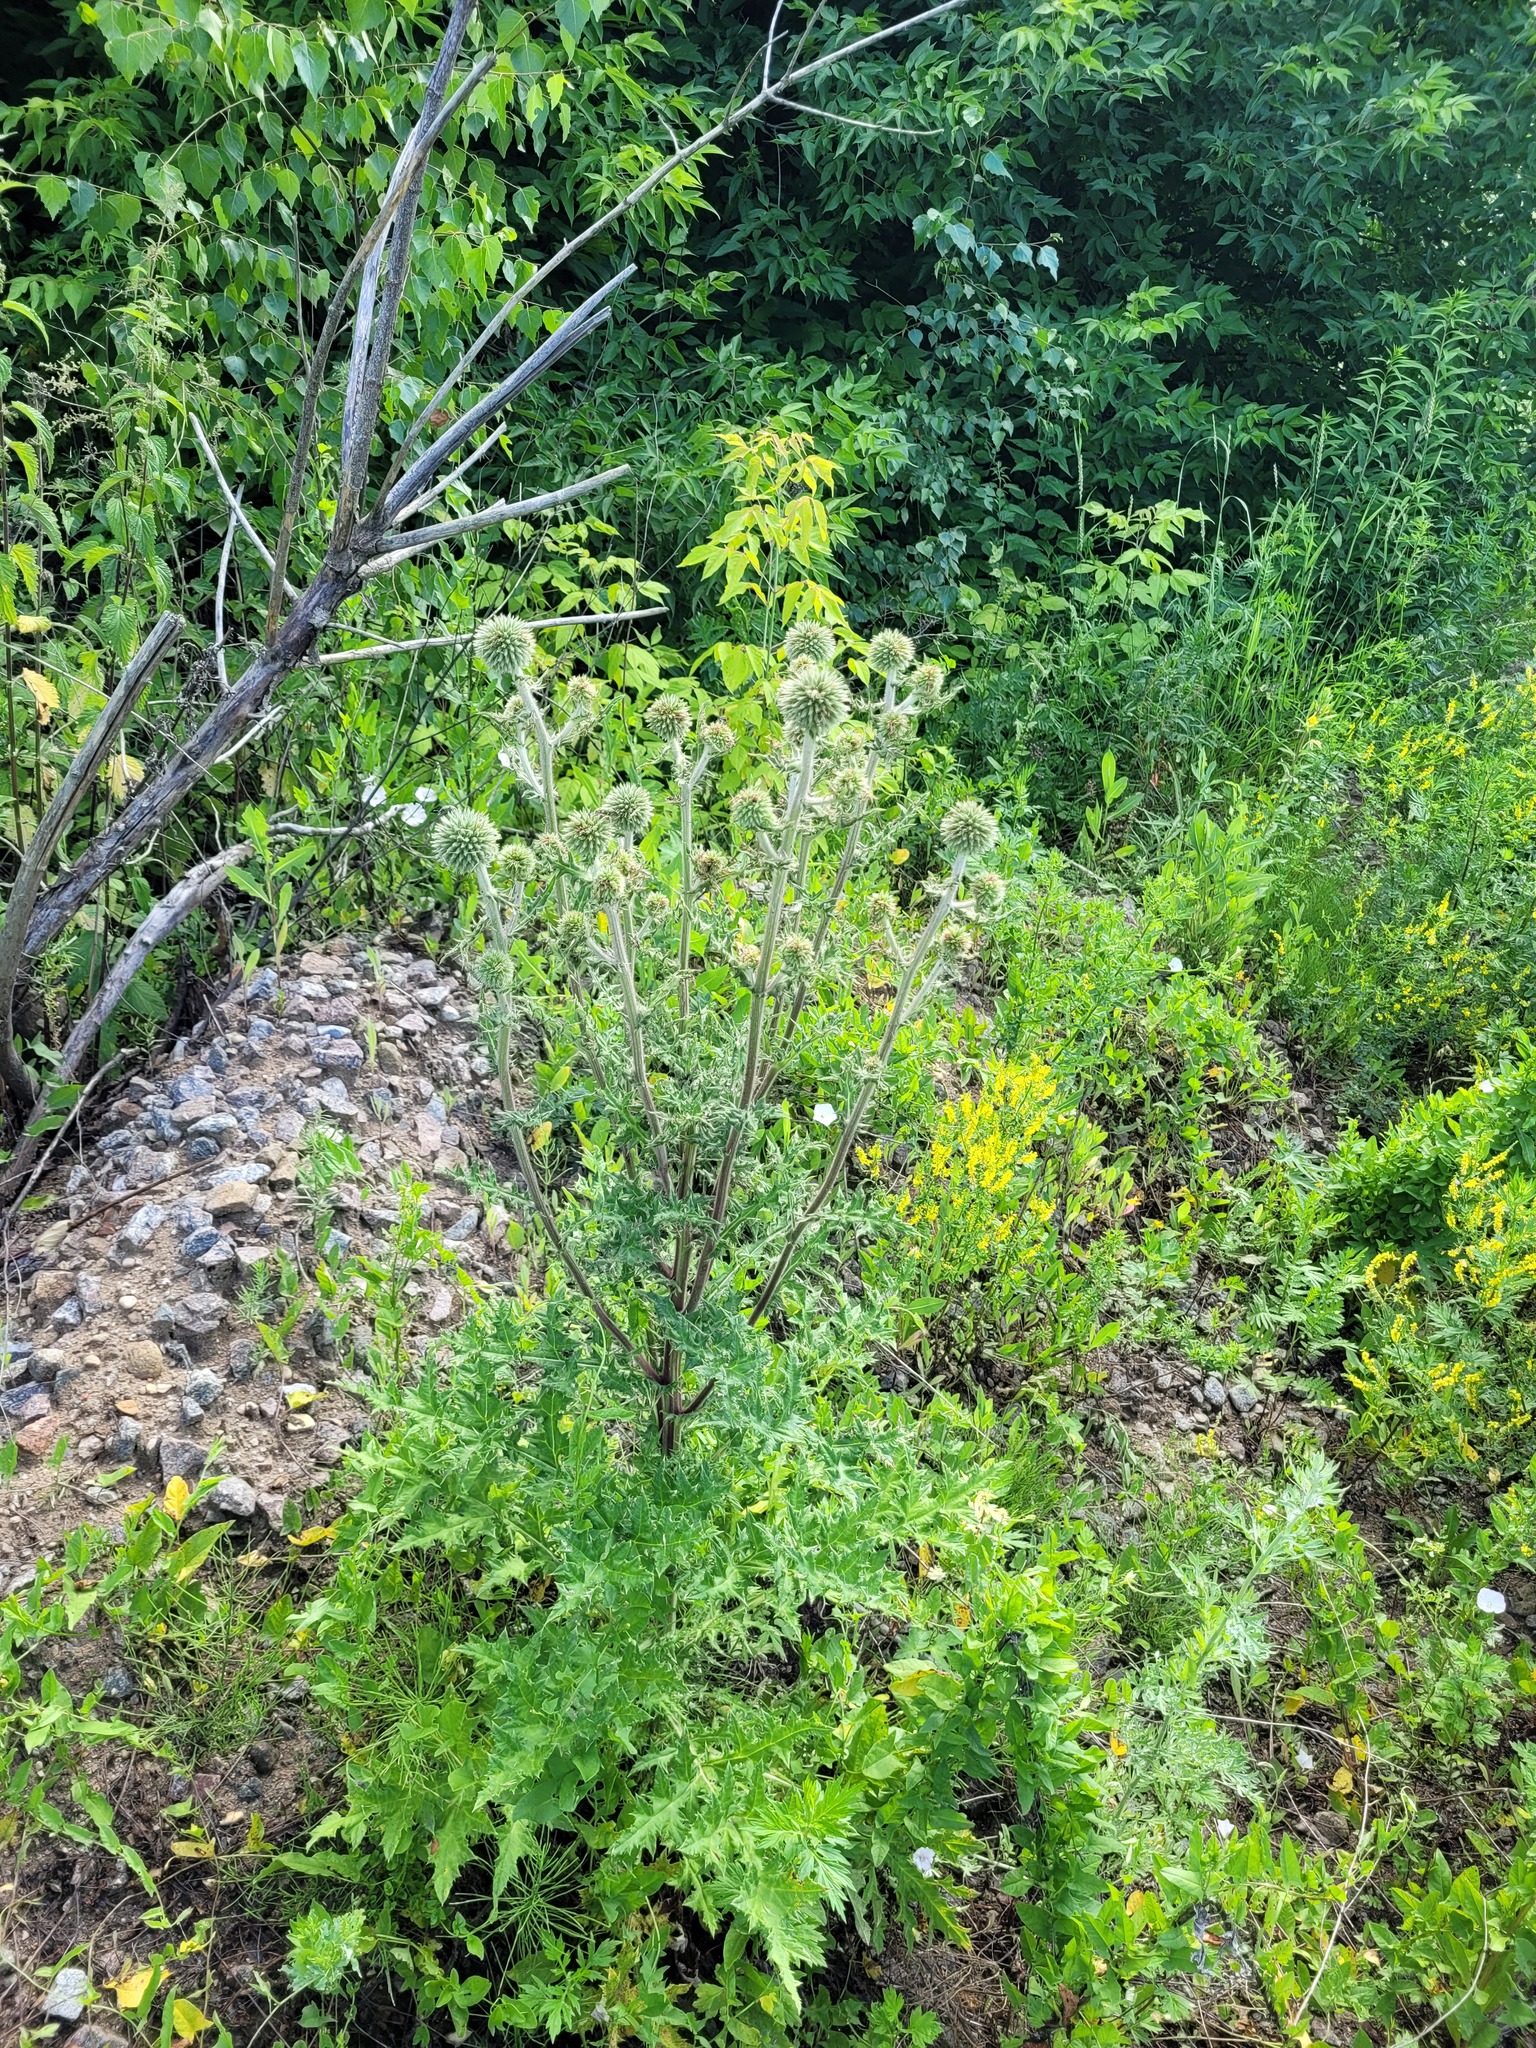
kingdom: Plantae
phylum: Tracheophyta
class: Magnoliopsida
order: Asterales
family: Asteraceae
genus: Echinops
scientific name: Echinops sphaerocephalus
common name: Glandular globe-thistle
